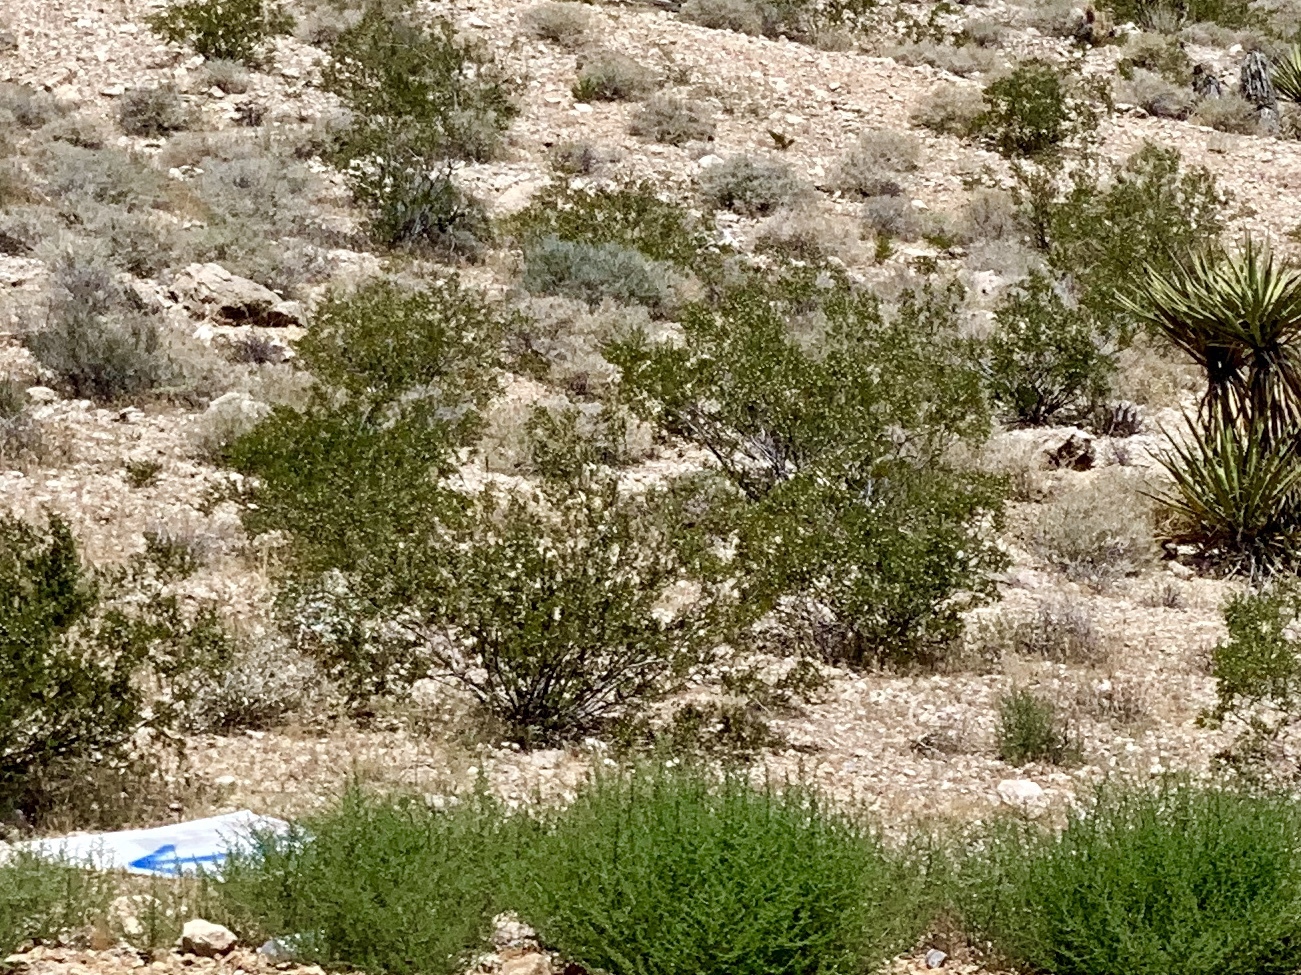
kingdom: Plantae
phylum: Tracheophyta
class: Magnoliopsida
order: Zygophyllales
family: Zygophyllaceae
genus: Larrea
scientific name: Larrea tridentata
